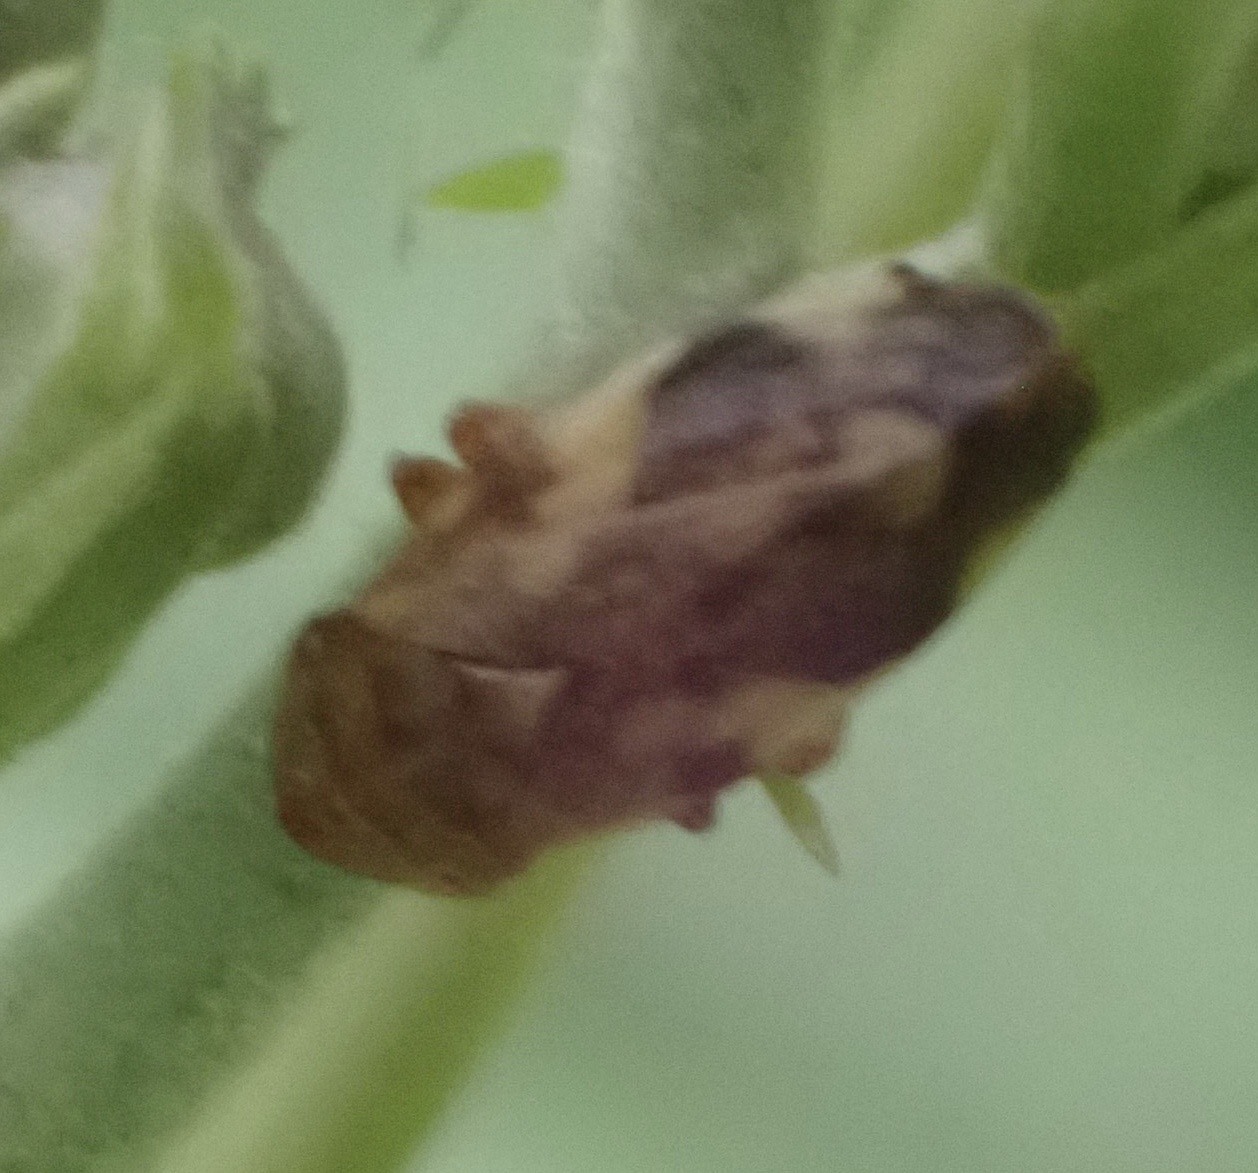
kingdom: Animalia
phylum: Arthropoda
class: Insecta
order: Hemiptera
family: Aphrophoridae
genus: Philaenus
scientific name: Philaenus spumarius
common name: Meadow spittlebug
